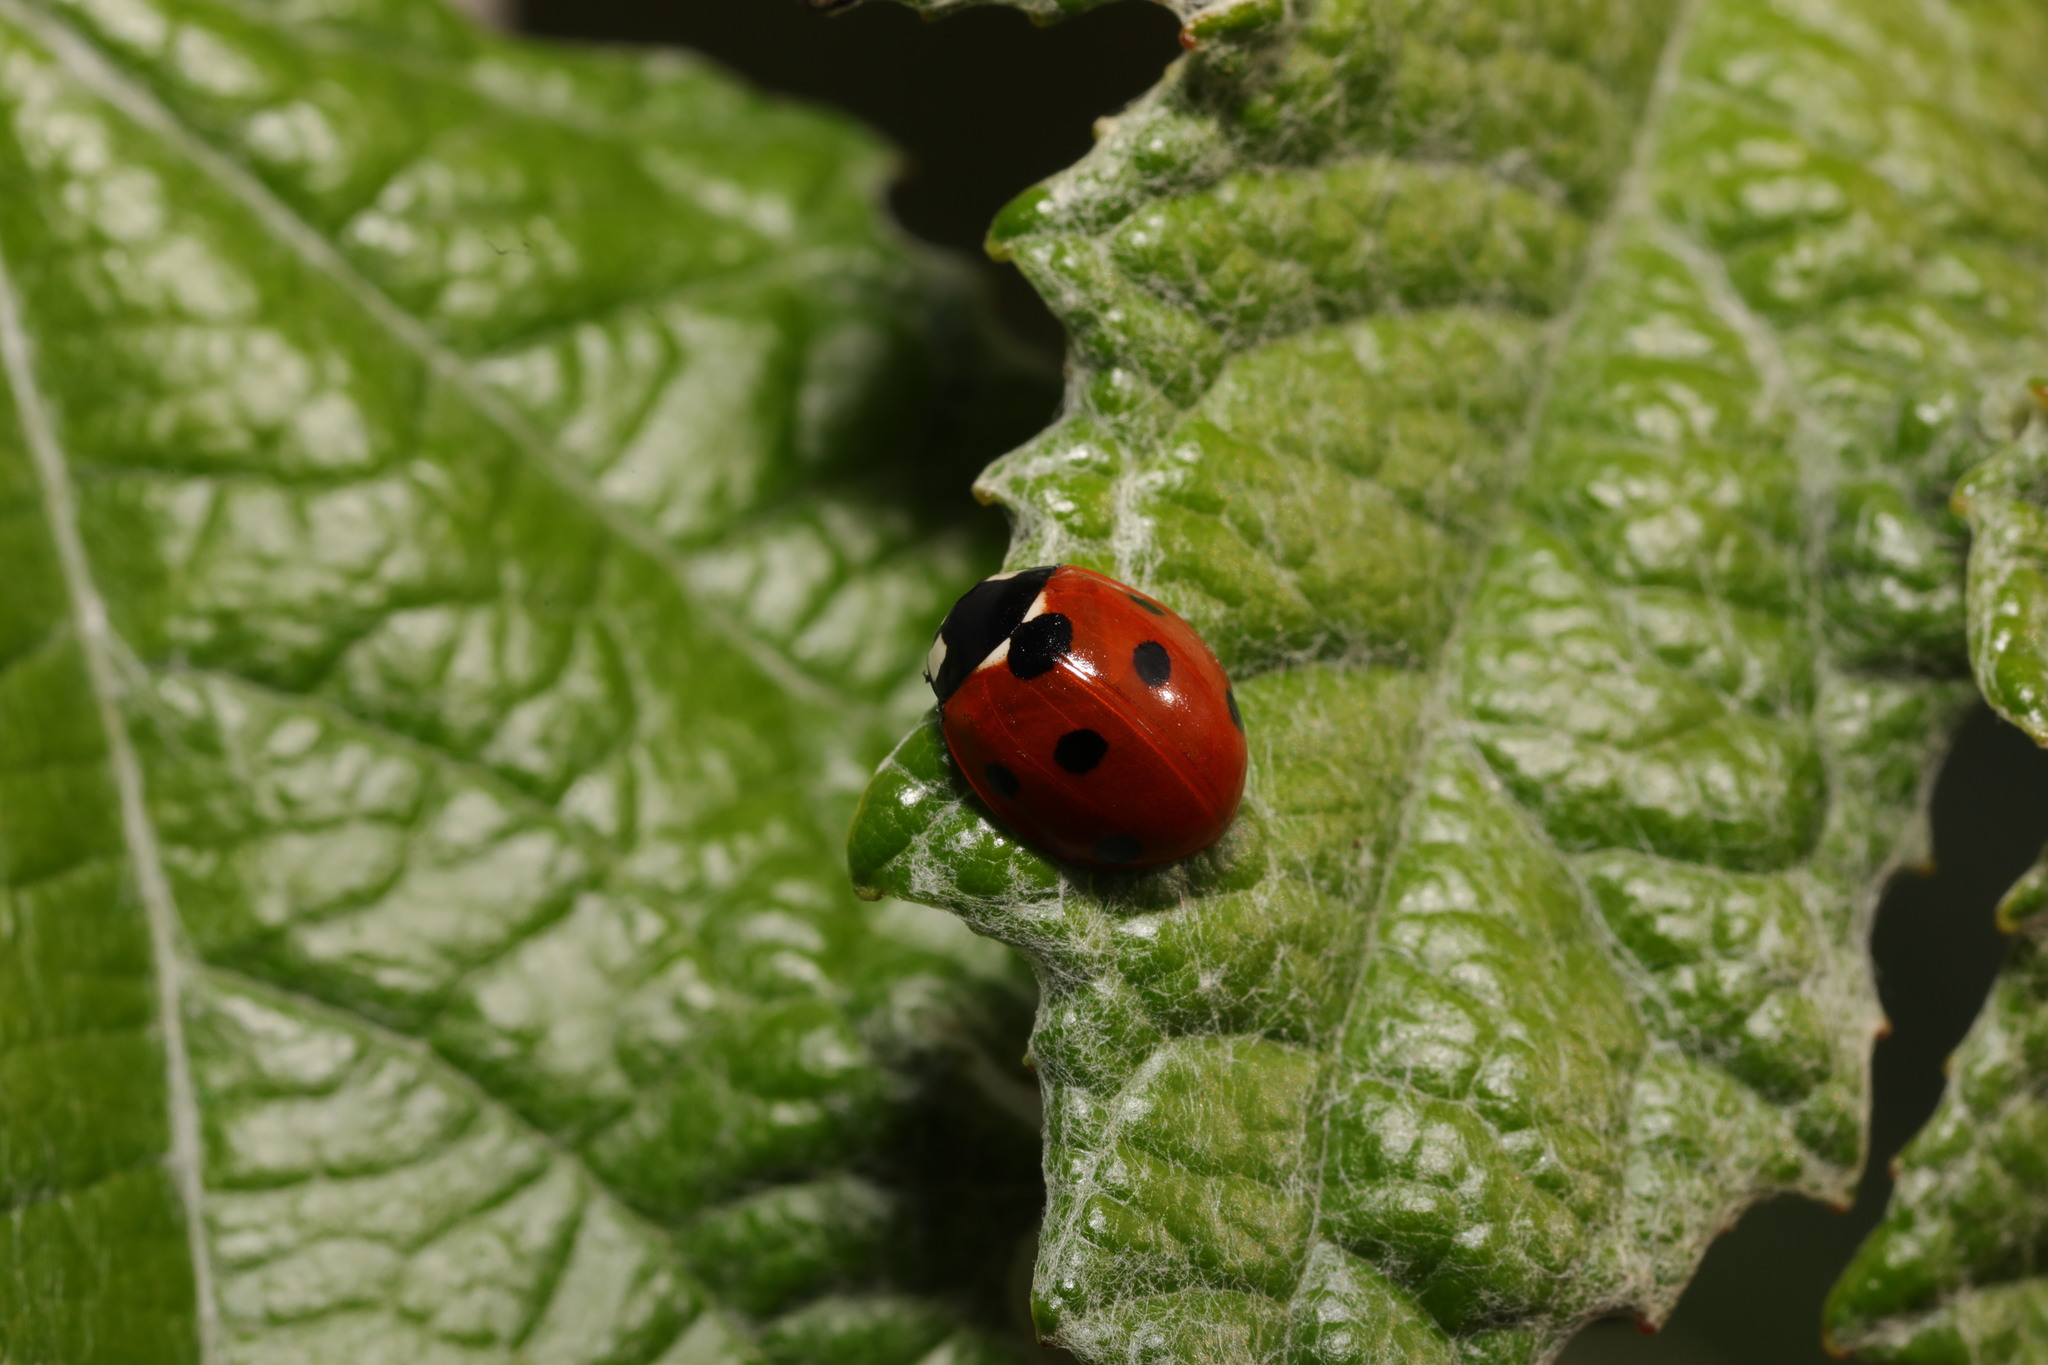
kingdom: Animalia
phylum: Arthropoda
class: Insecta
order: Coleoptera
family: Coccinellidae
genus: Coccinella
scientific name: Coccinella septempunctata
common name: Sevenspotted lady beetle
